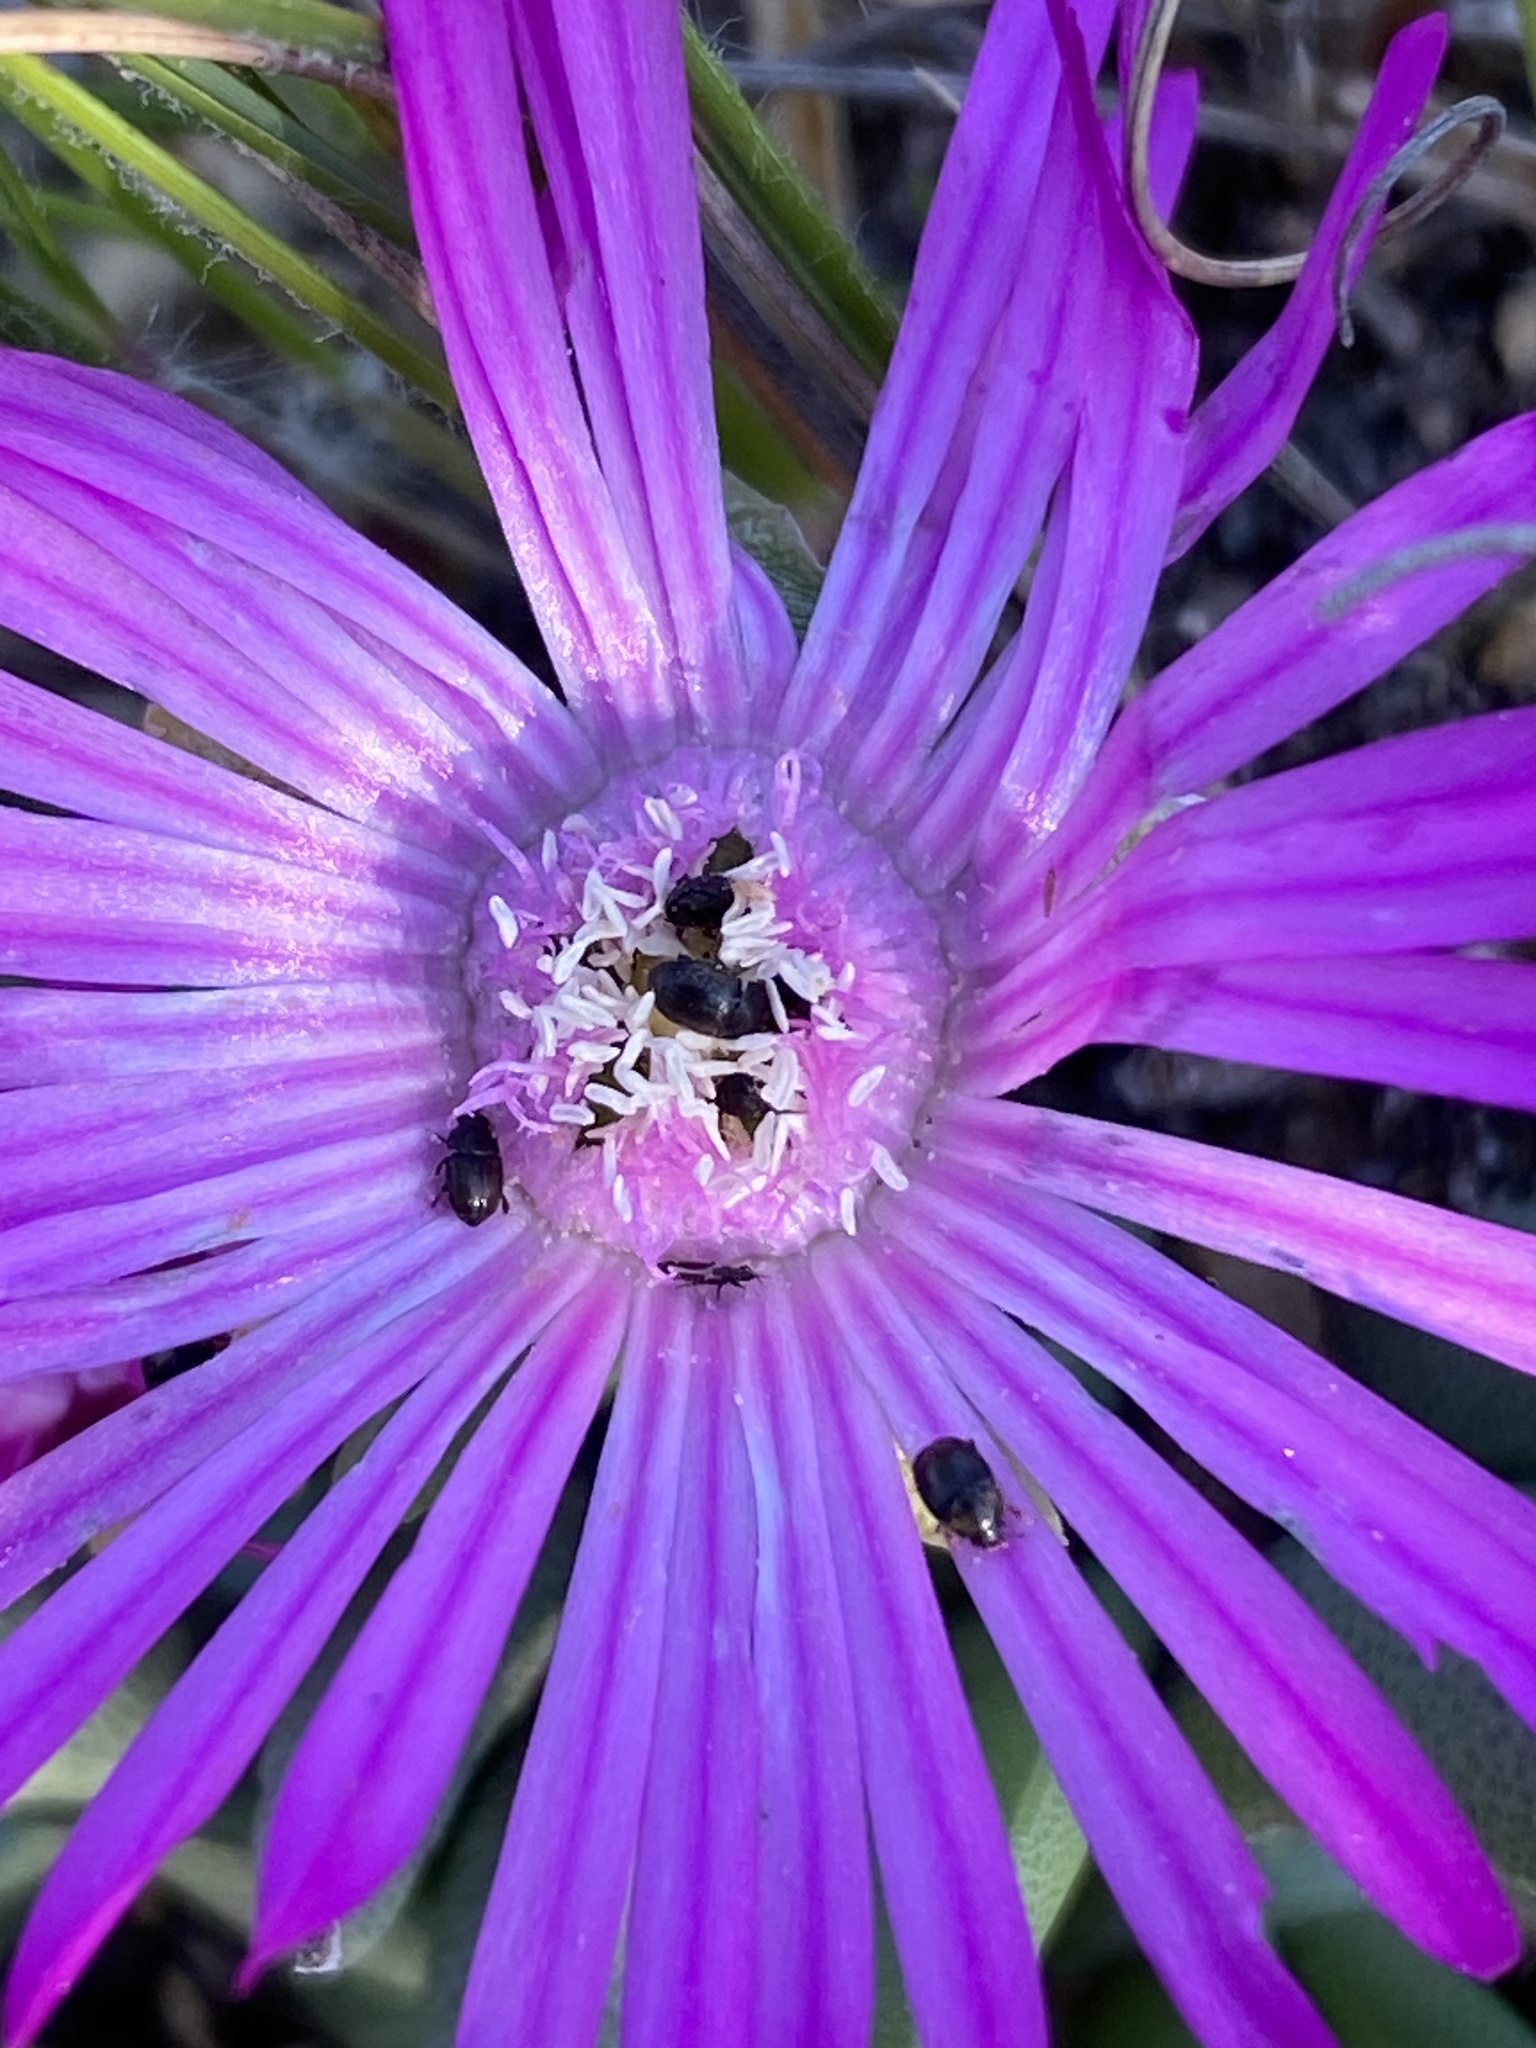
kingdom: Plantae
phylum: Tracheophyta
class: Magnoliopsida
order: Caryophyllales
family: Aizoaceae
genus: Marlothistella
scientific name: Marlothistella uniondalensis
